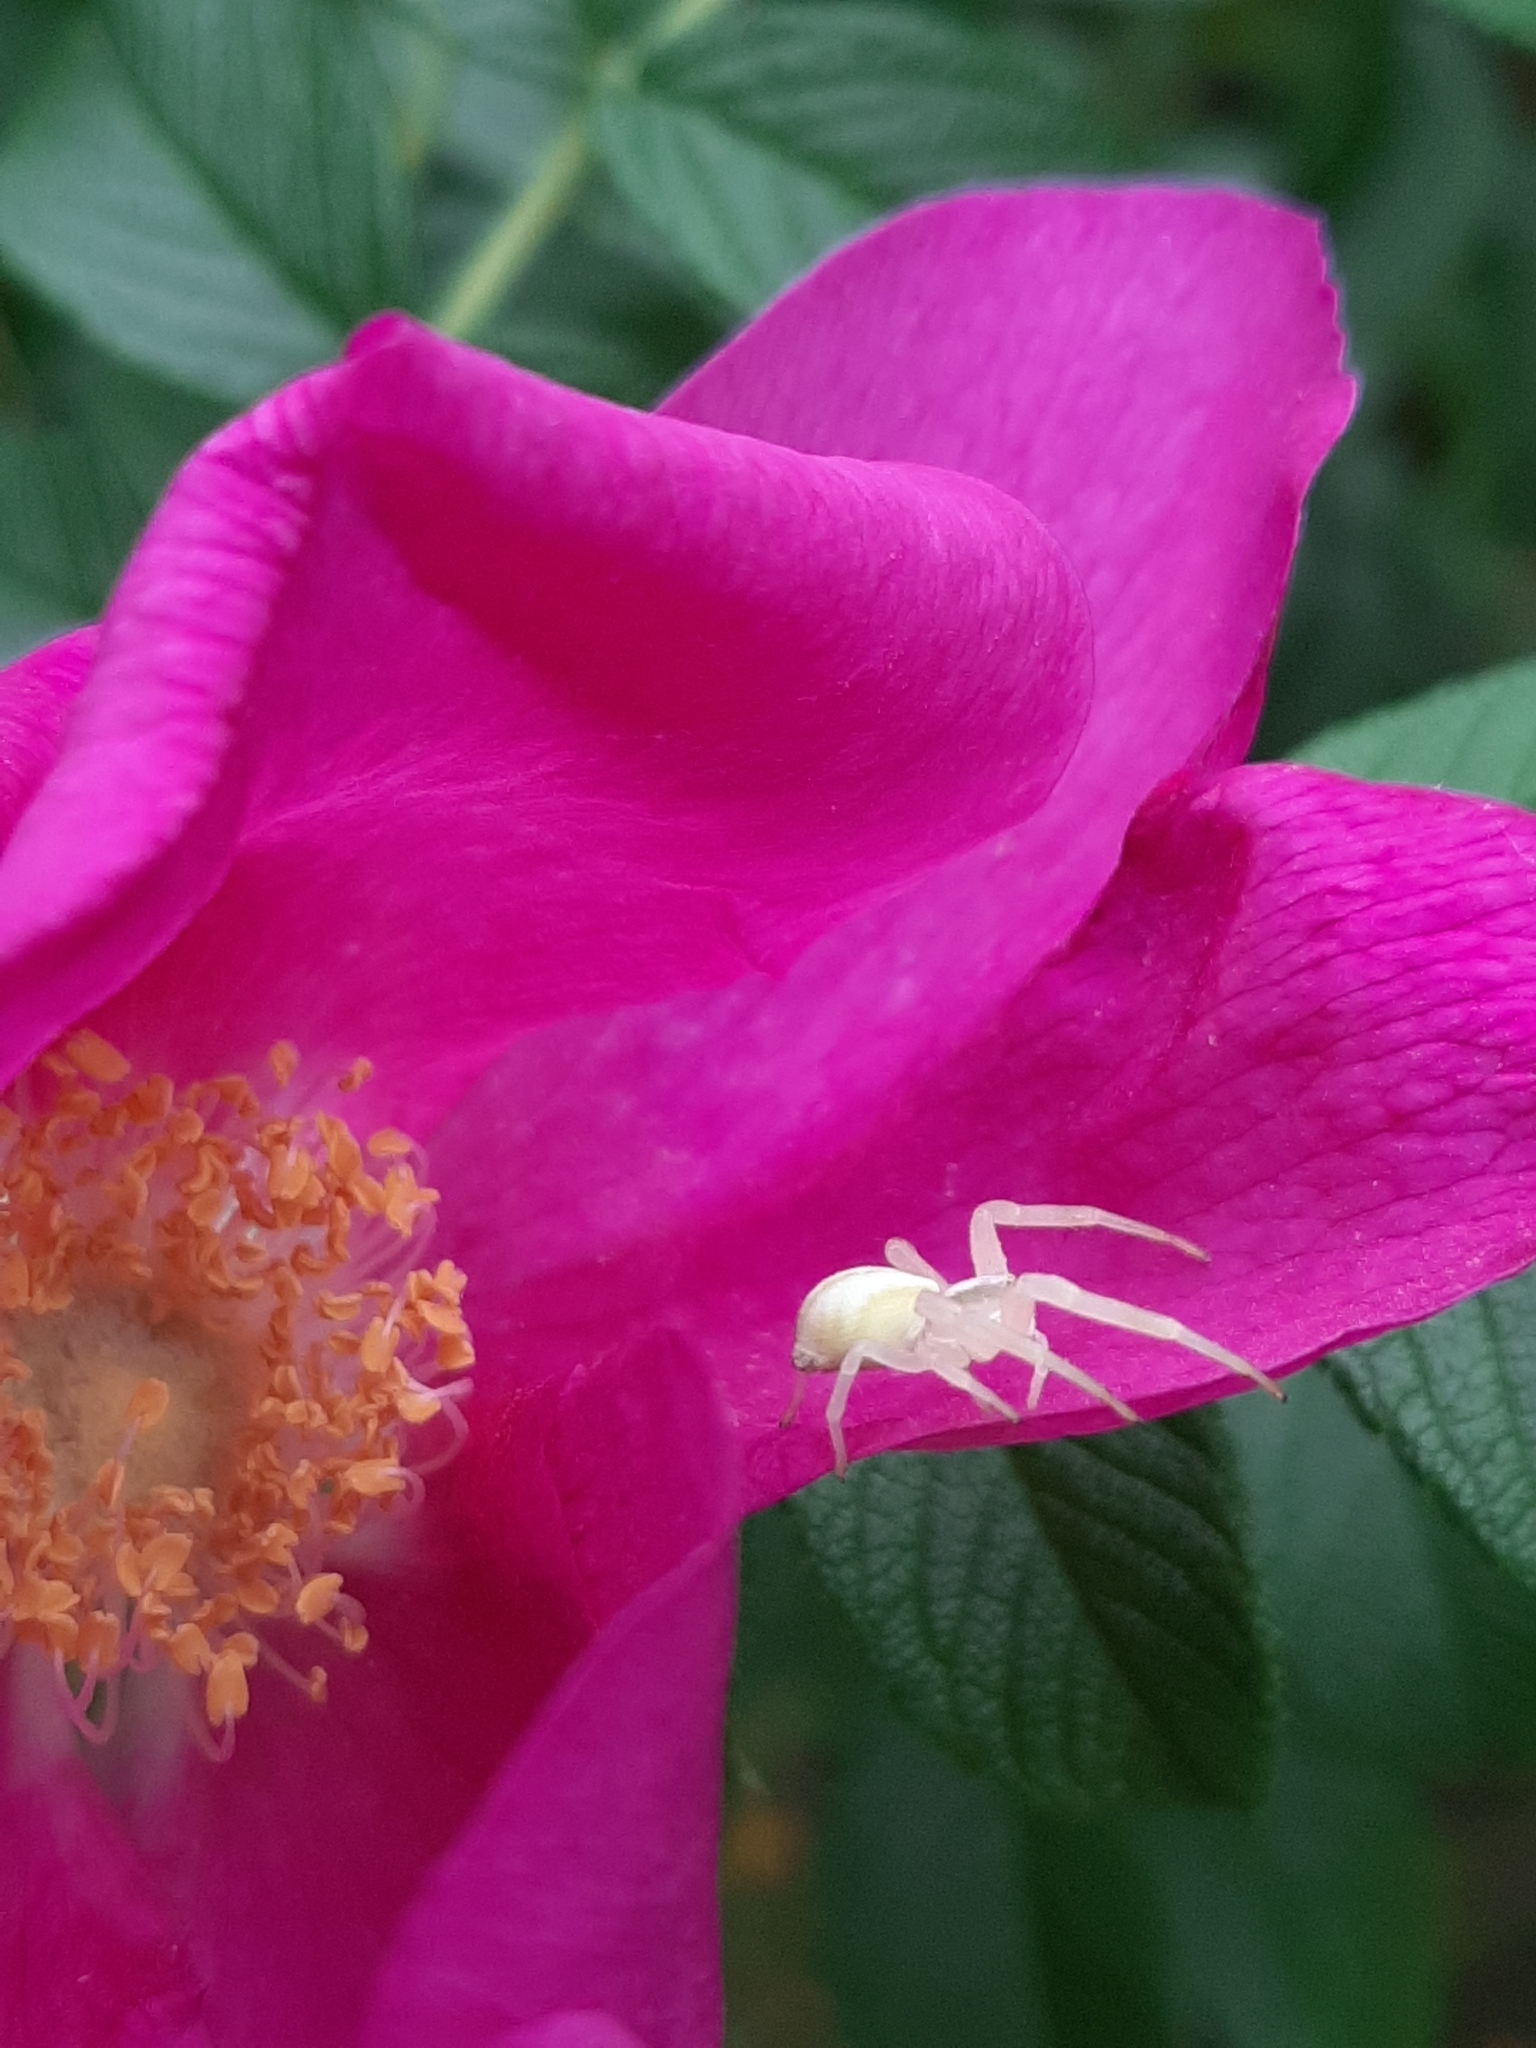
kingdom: Animalia
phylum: Arthropoda
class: Arachnida
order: Araneae
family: Thomisidae
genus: Misumena
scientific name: Misumena vatia
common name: Goldenrod crab spider
